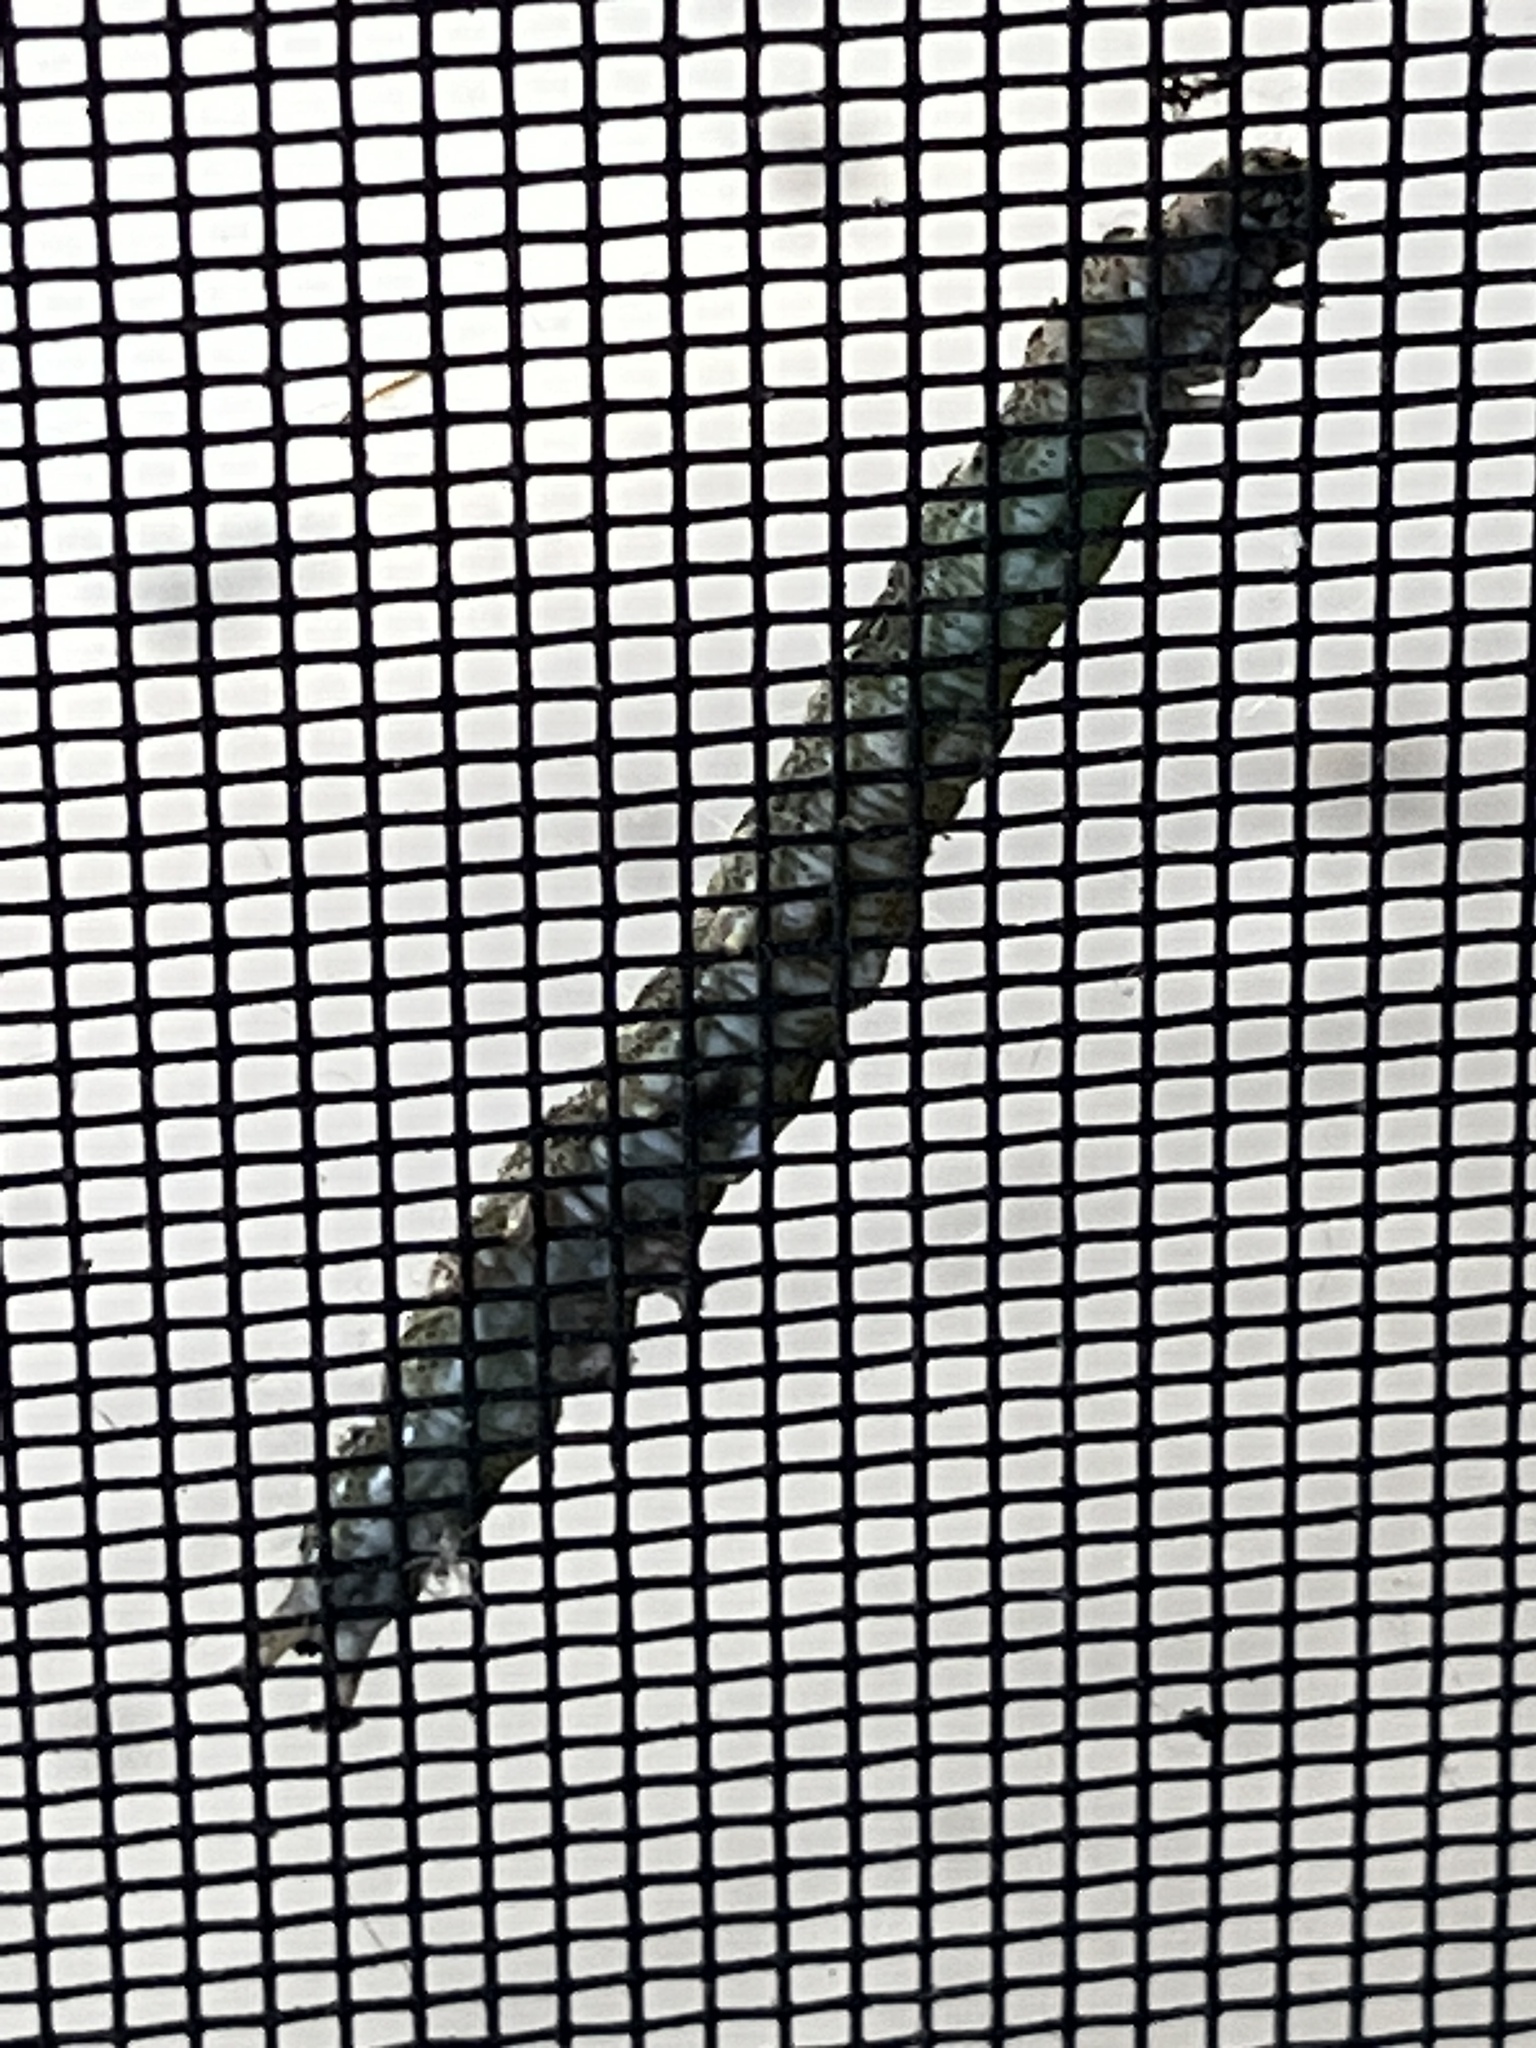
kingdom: Animalia
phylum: Arthropoda
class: Insecta
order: Lepidoptera
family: Erebidae
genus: Metria
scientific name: Metria amella
